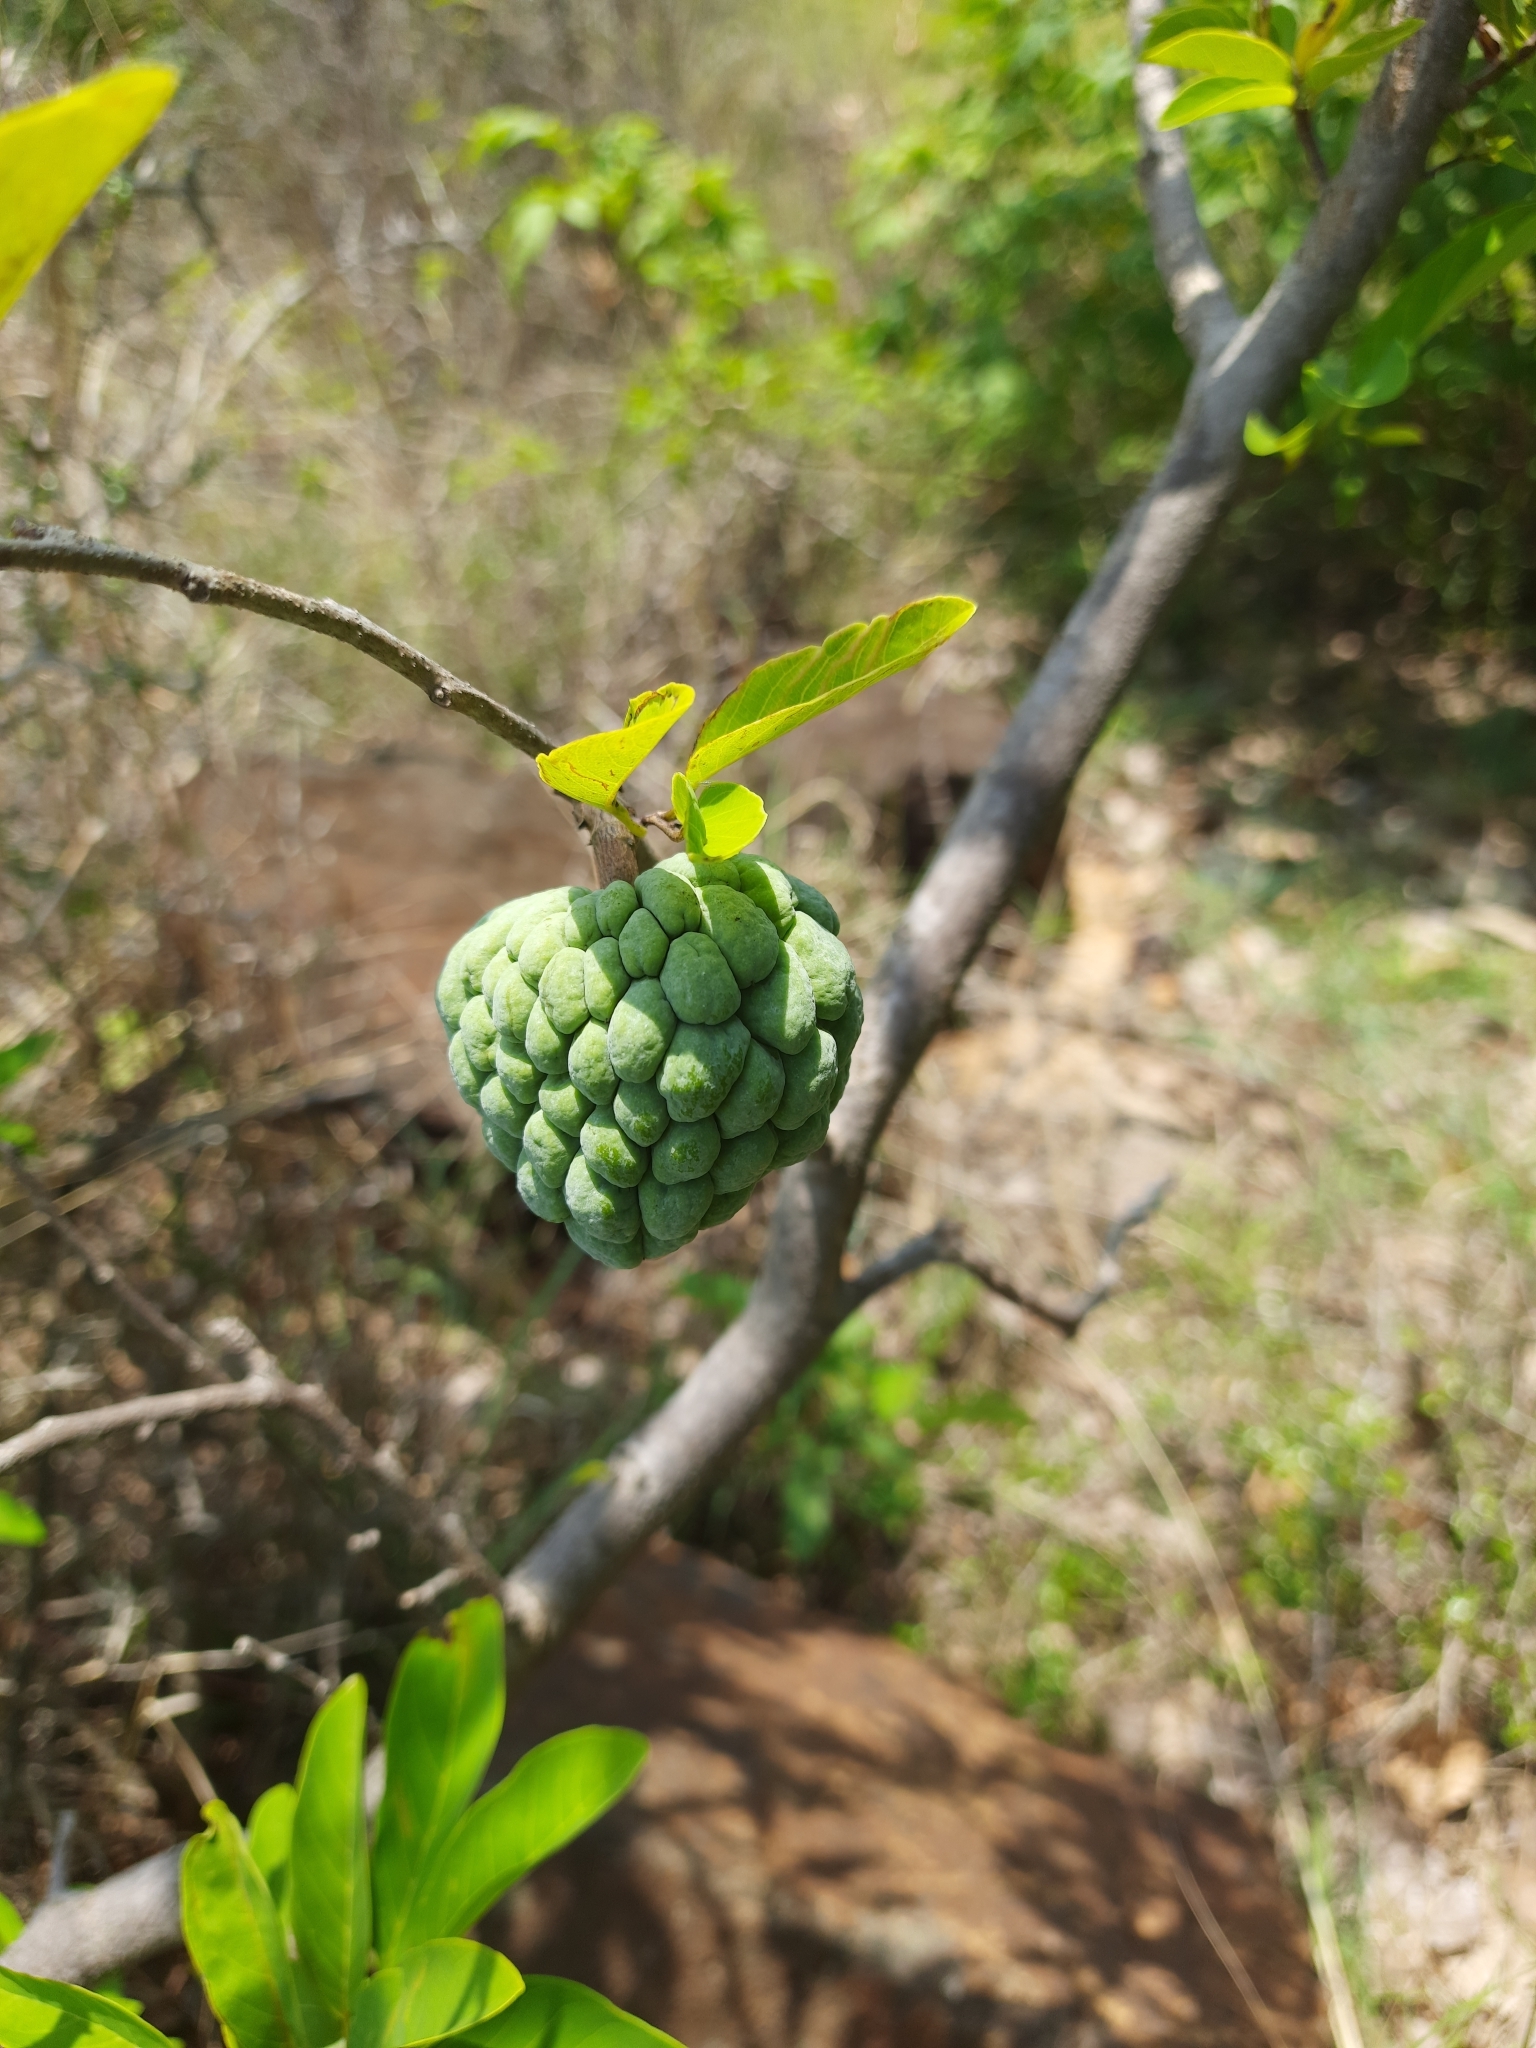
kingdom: Plantae
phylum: Tracheophyta
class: Magnoliopsida
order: Magnoliales
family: Annonaceae
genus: Annona
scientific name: Annona squamosa
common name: Custard-apple
